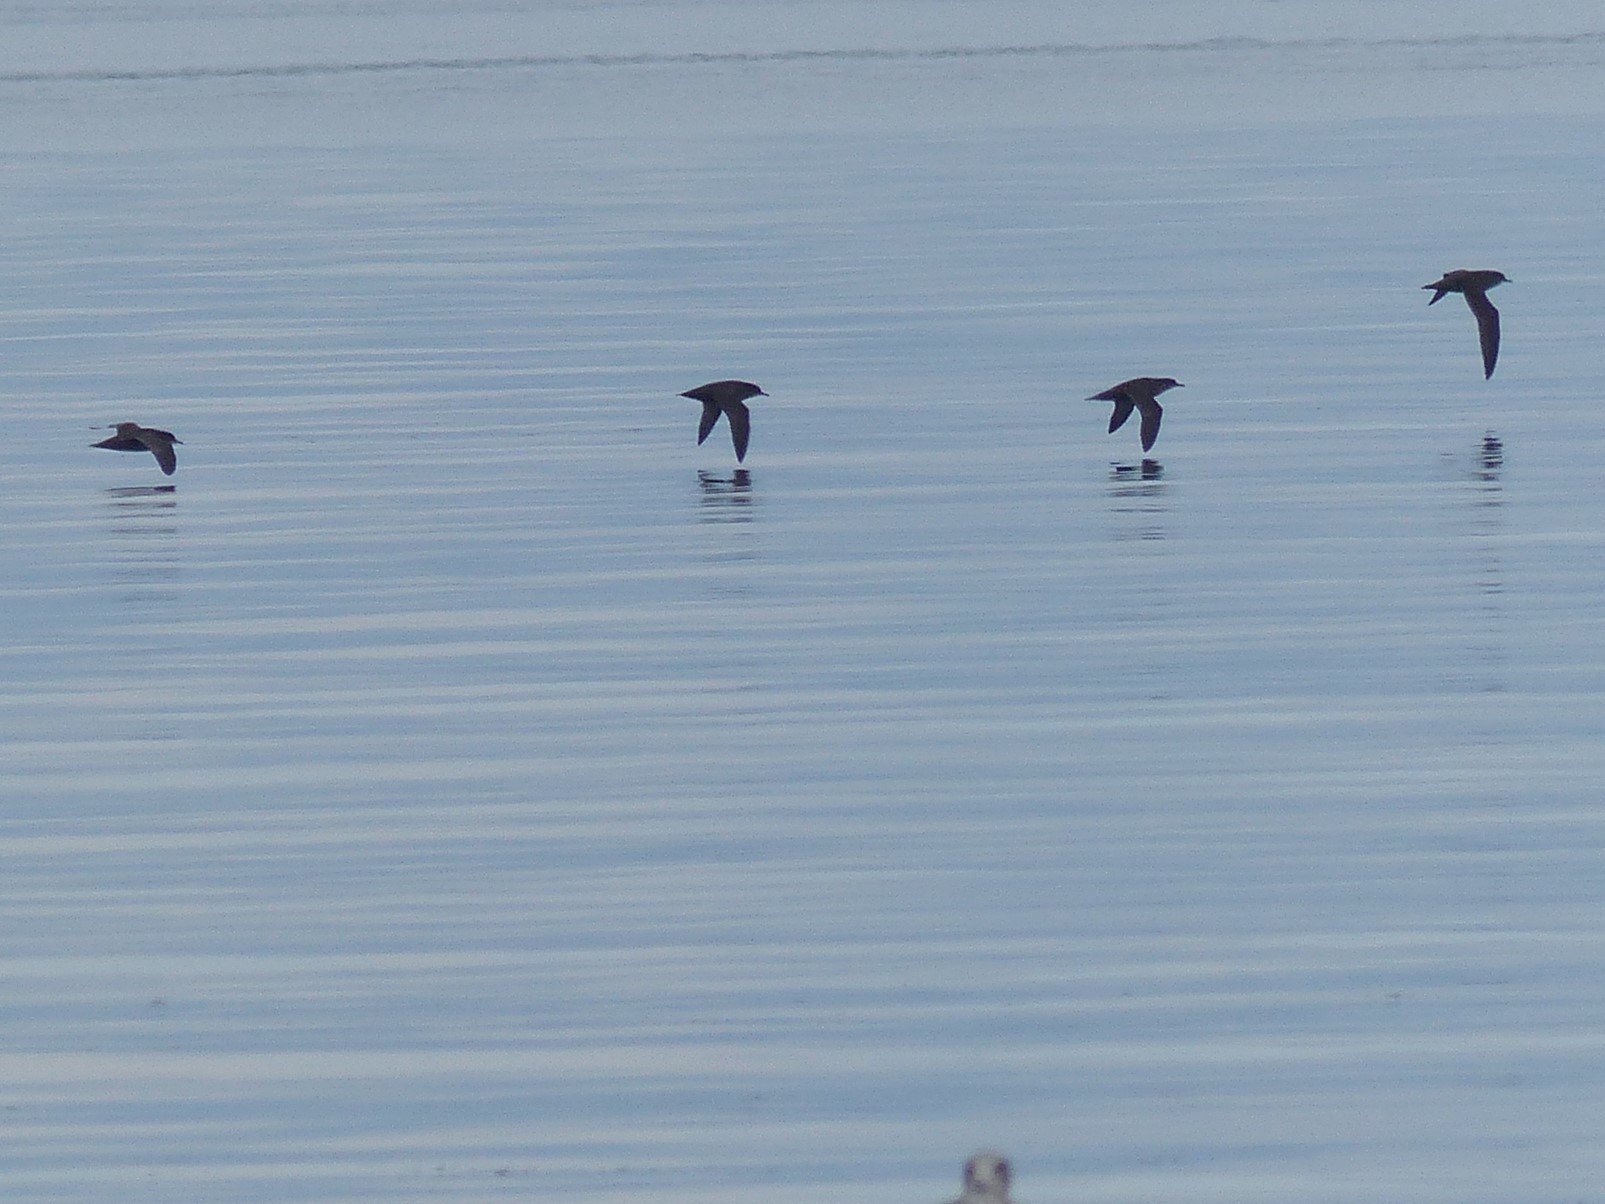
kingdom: Animalia
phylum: Chordata
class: Aves
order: Procellariiformes
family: Procellariidae
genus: Puffinus
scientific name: Puffinus tenuirostris
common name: Short-tailed shearwater
